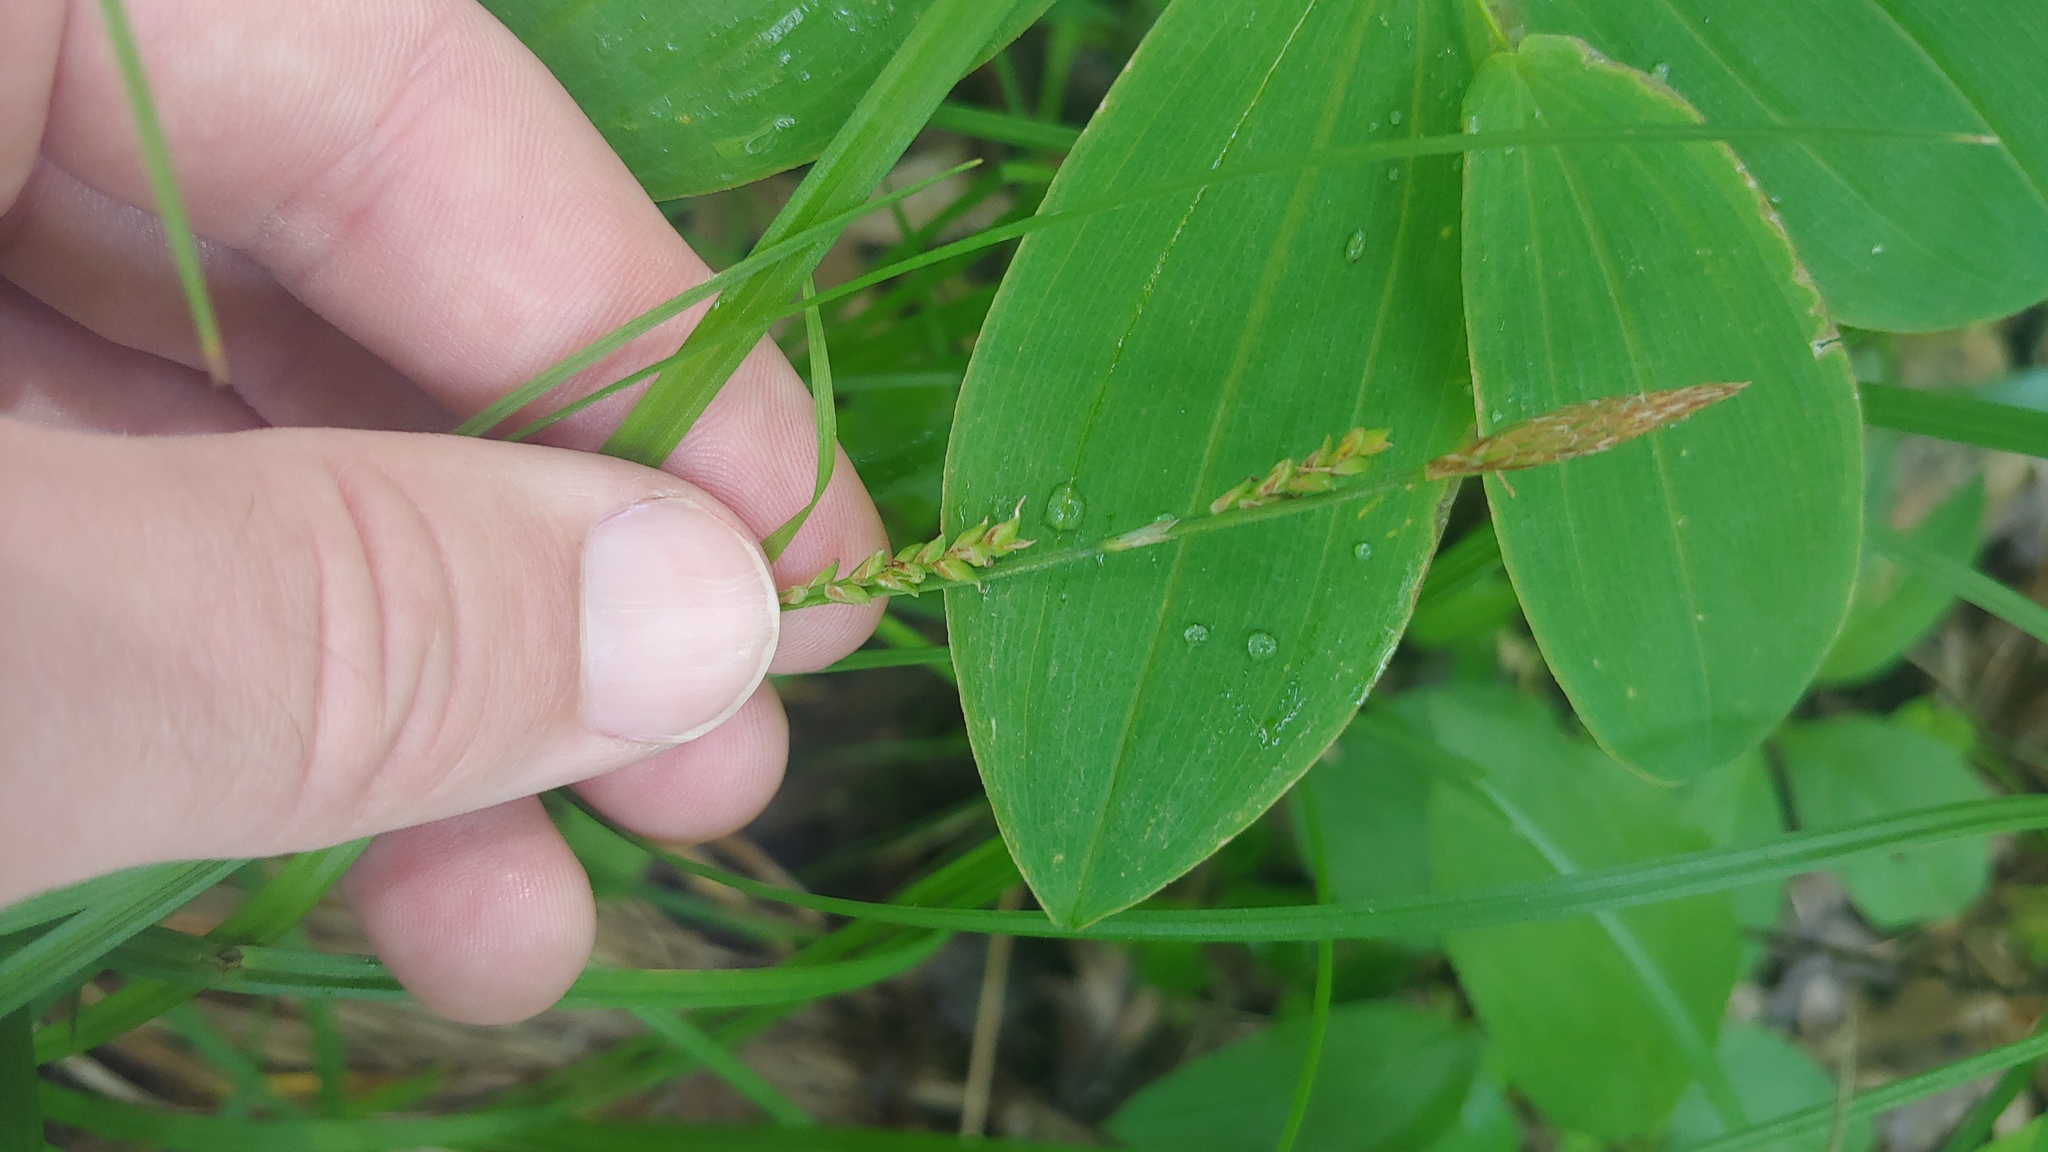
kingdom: Plantae
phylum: Tracheophyta
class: Liliopsida
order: Poales
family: Cyperaceae
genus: Carex
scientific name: Carex woodii
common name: Wood's sedge
